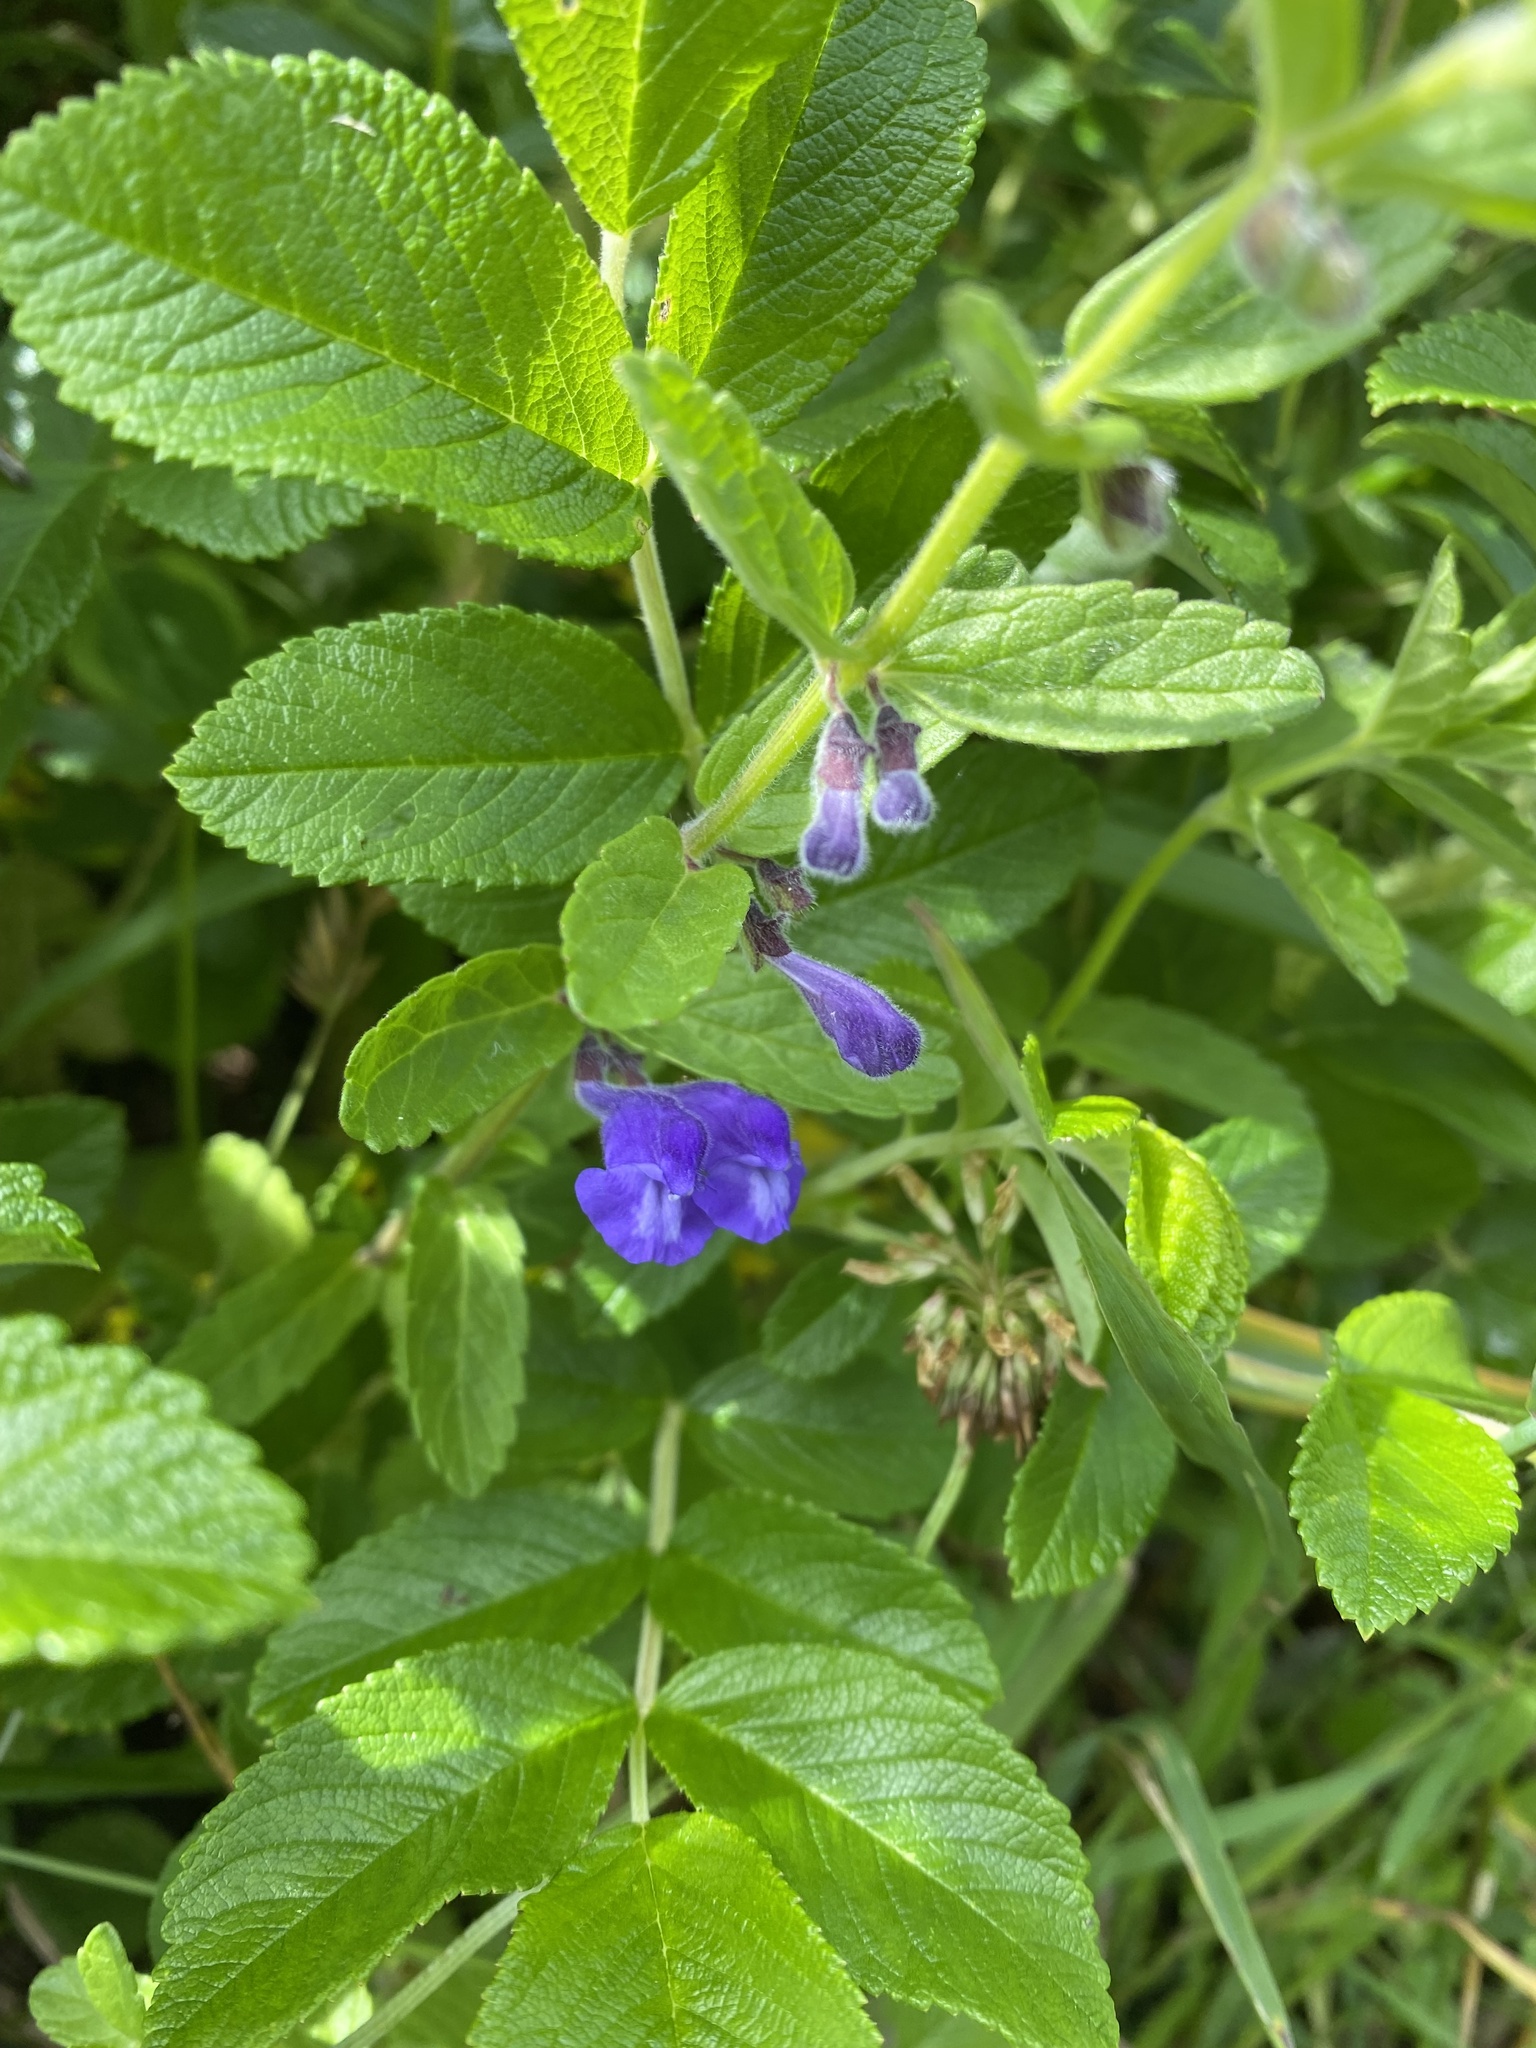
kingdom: Plantae
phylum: Tracheophyta
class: Magnoliopsida
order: Lamiales
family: Lamiaceae
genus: Scutellaria
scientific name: Scutellaria strigillosa
